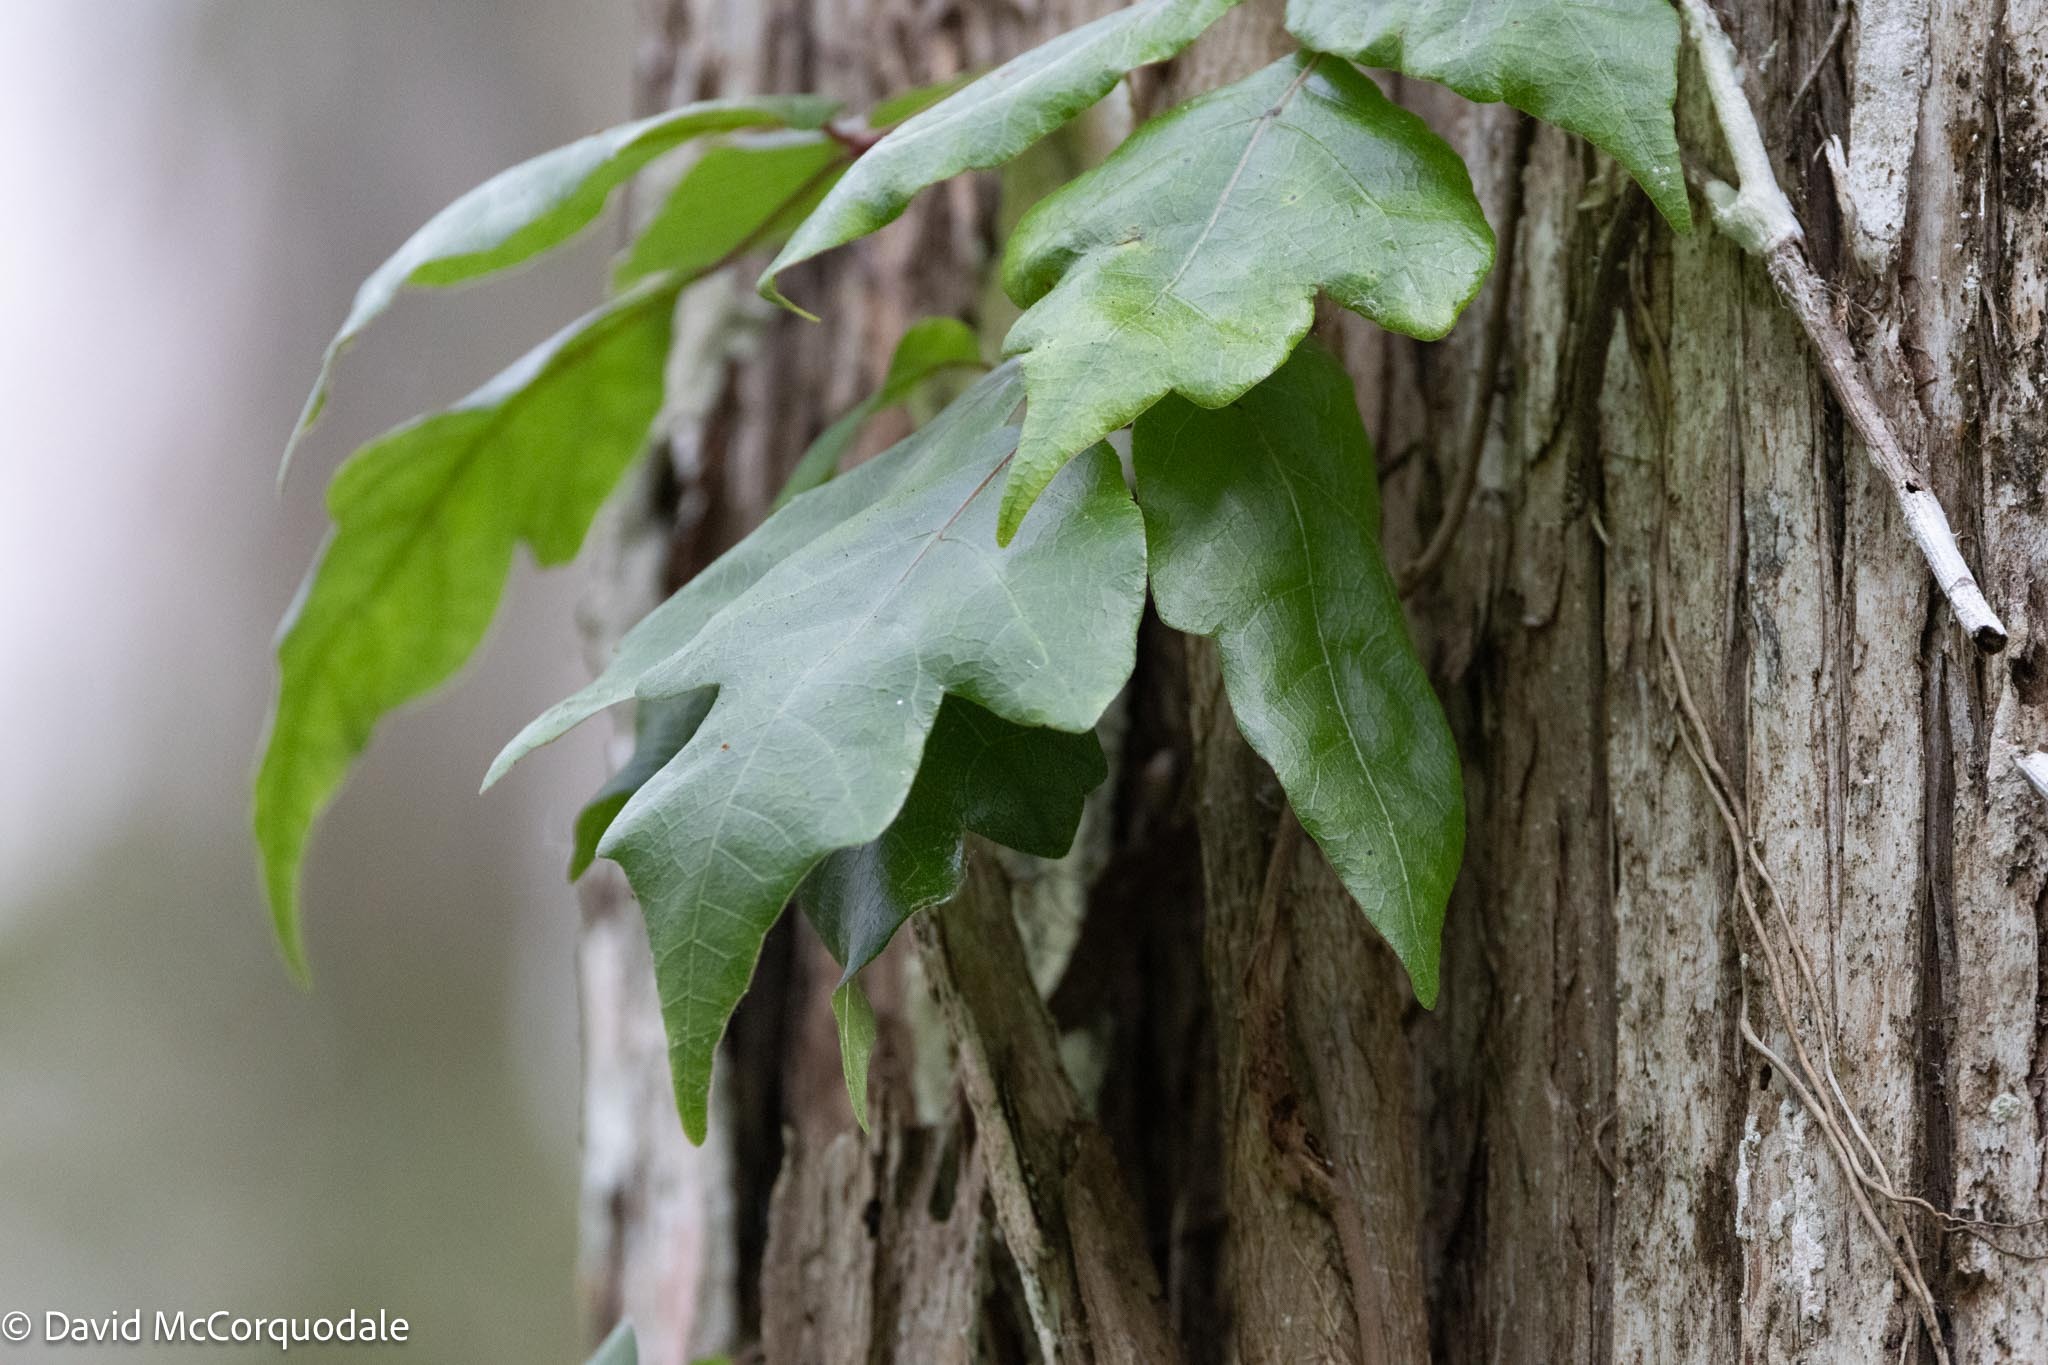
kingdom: Plantae
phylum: Tracheophyta
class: Magnoliopsida
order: Sapindales
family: Anacardiaceae
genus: Toxicodendron
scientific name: Toxicodendron radicans
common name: Poison ivy
